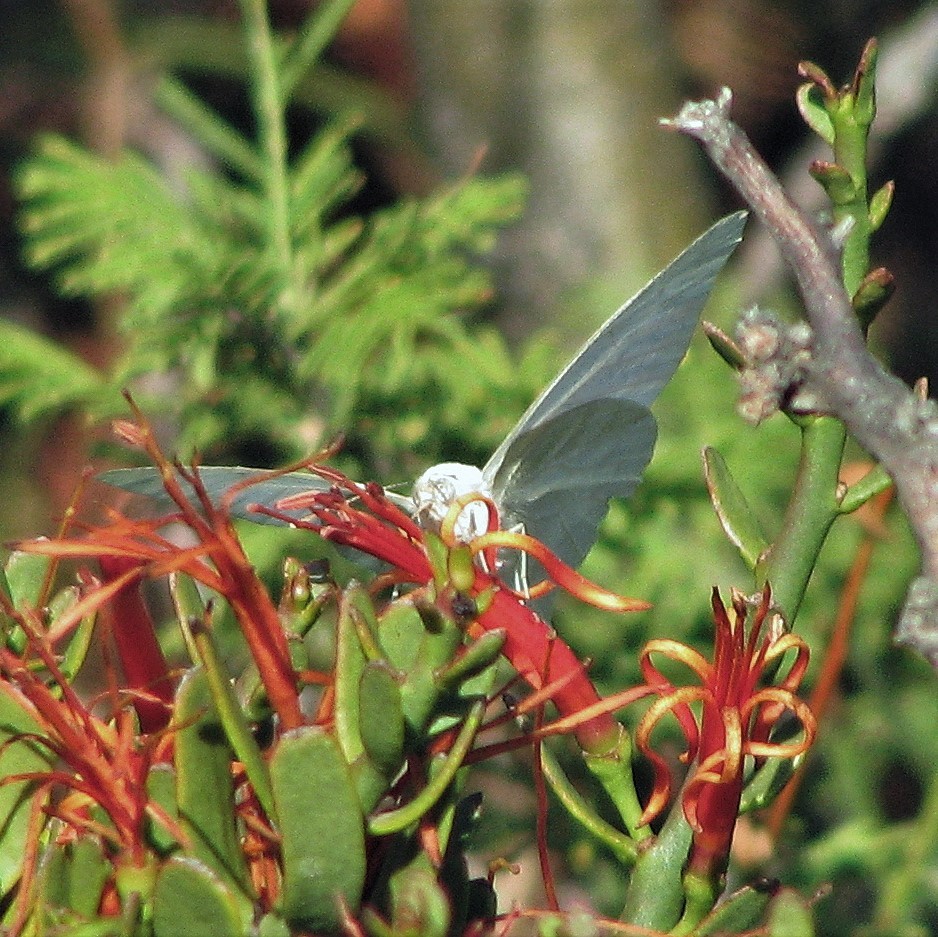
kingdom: Animalia
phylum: Arthropoda
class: Insecta
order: Lepidoptera
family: Pieridae
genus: Mathania
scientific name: Mathania carrizoi
